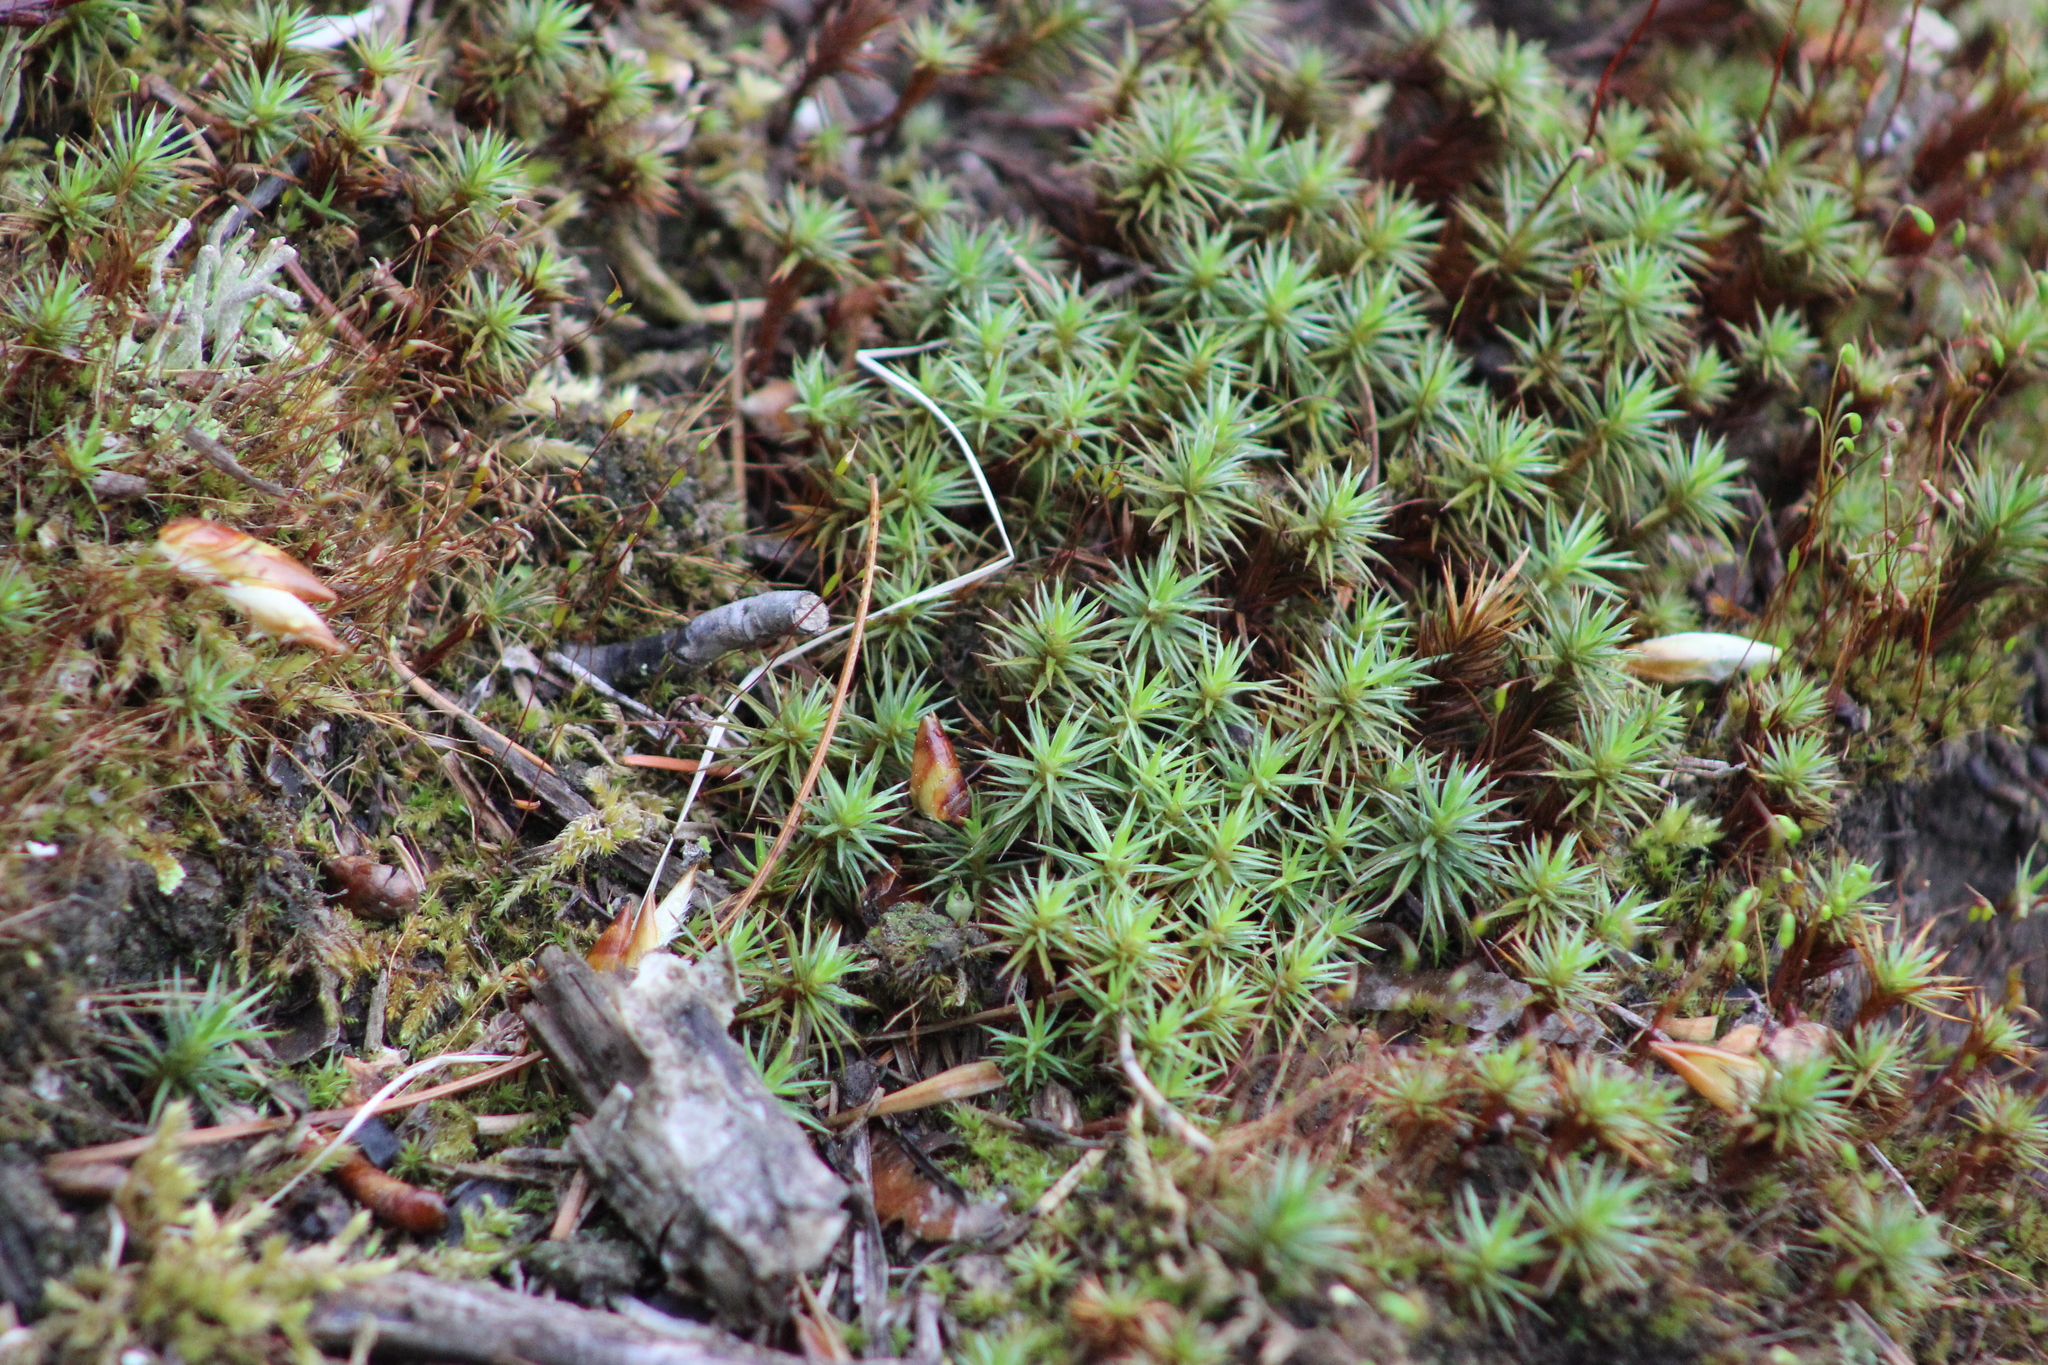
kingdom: Plantae
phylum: Bryophyta
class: Polytrichopsida
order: Polytrichales
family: Polytrichaceae
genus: Polytrichum
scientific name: Polytrichum juniperinum
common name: Juniper haircap moss
